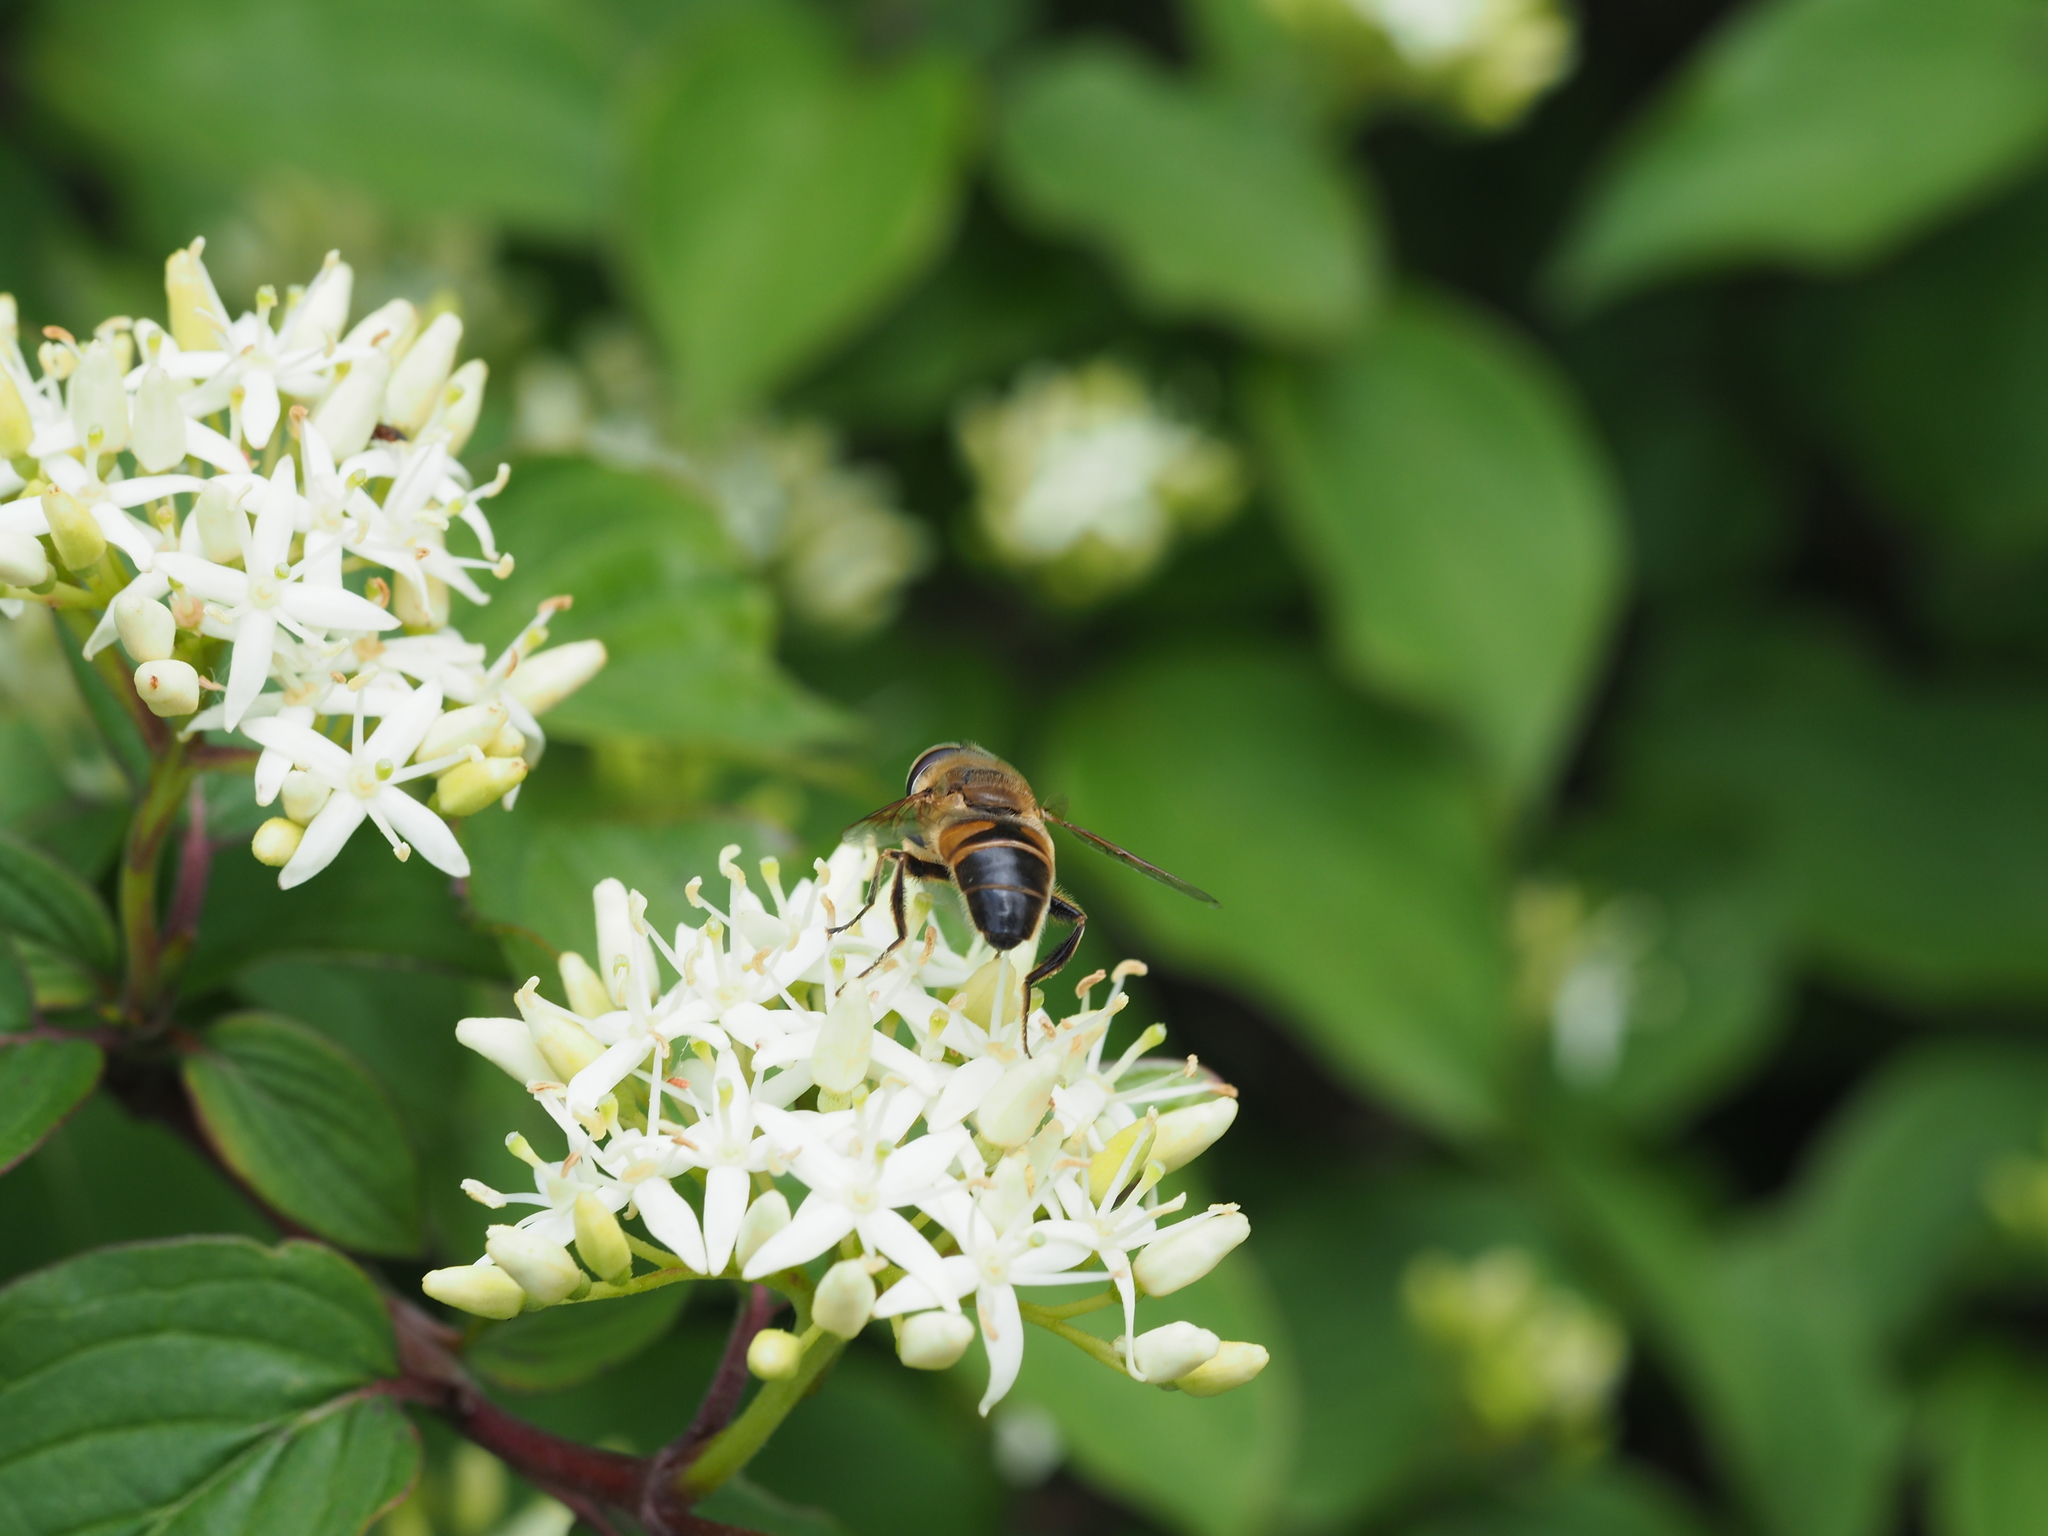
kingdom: Animalia
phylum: Arthropoda
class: Insecta
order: Diptera
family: Syrphidae
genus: Eristalis
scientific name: Eristalis tenax
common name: Drone fly
